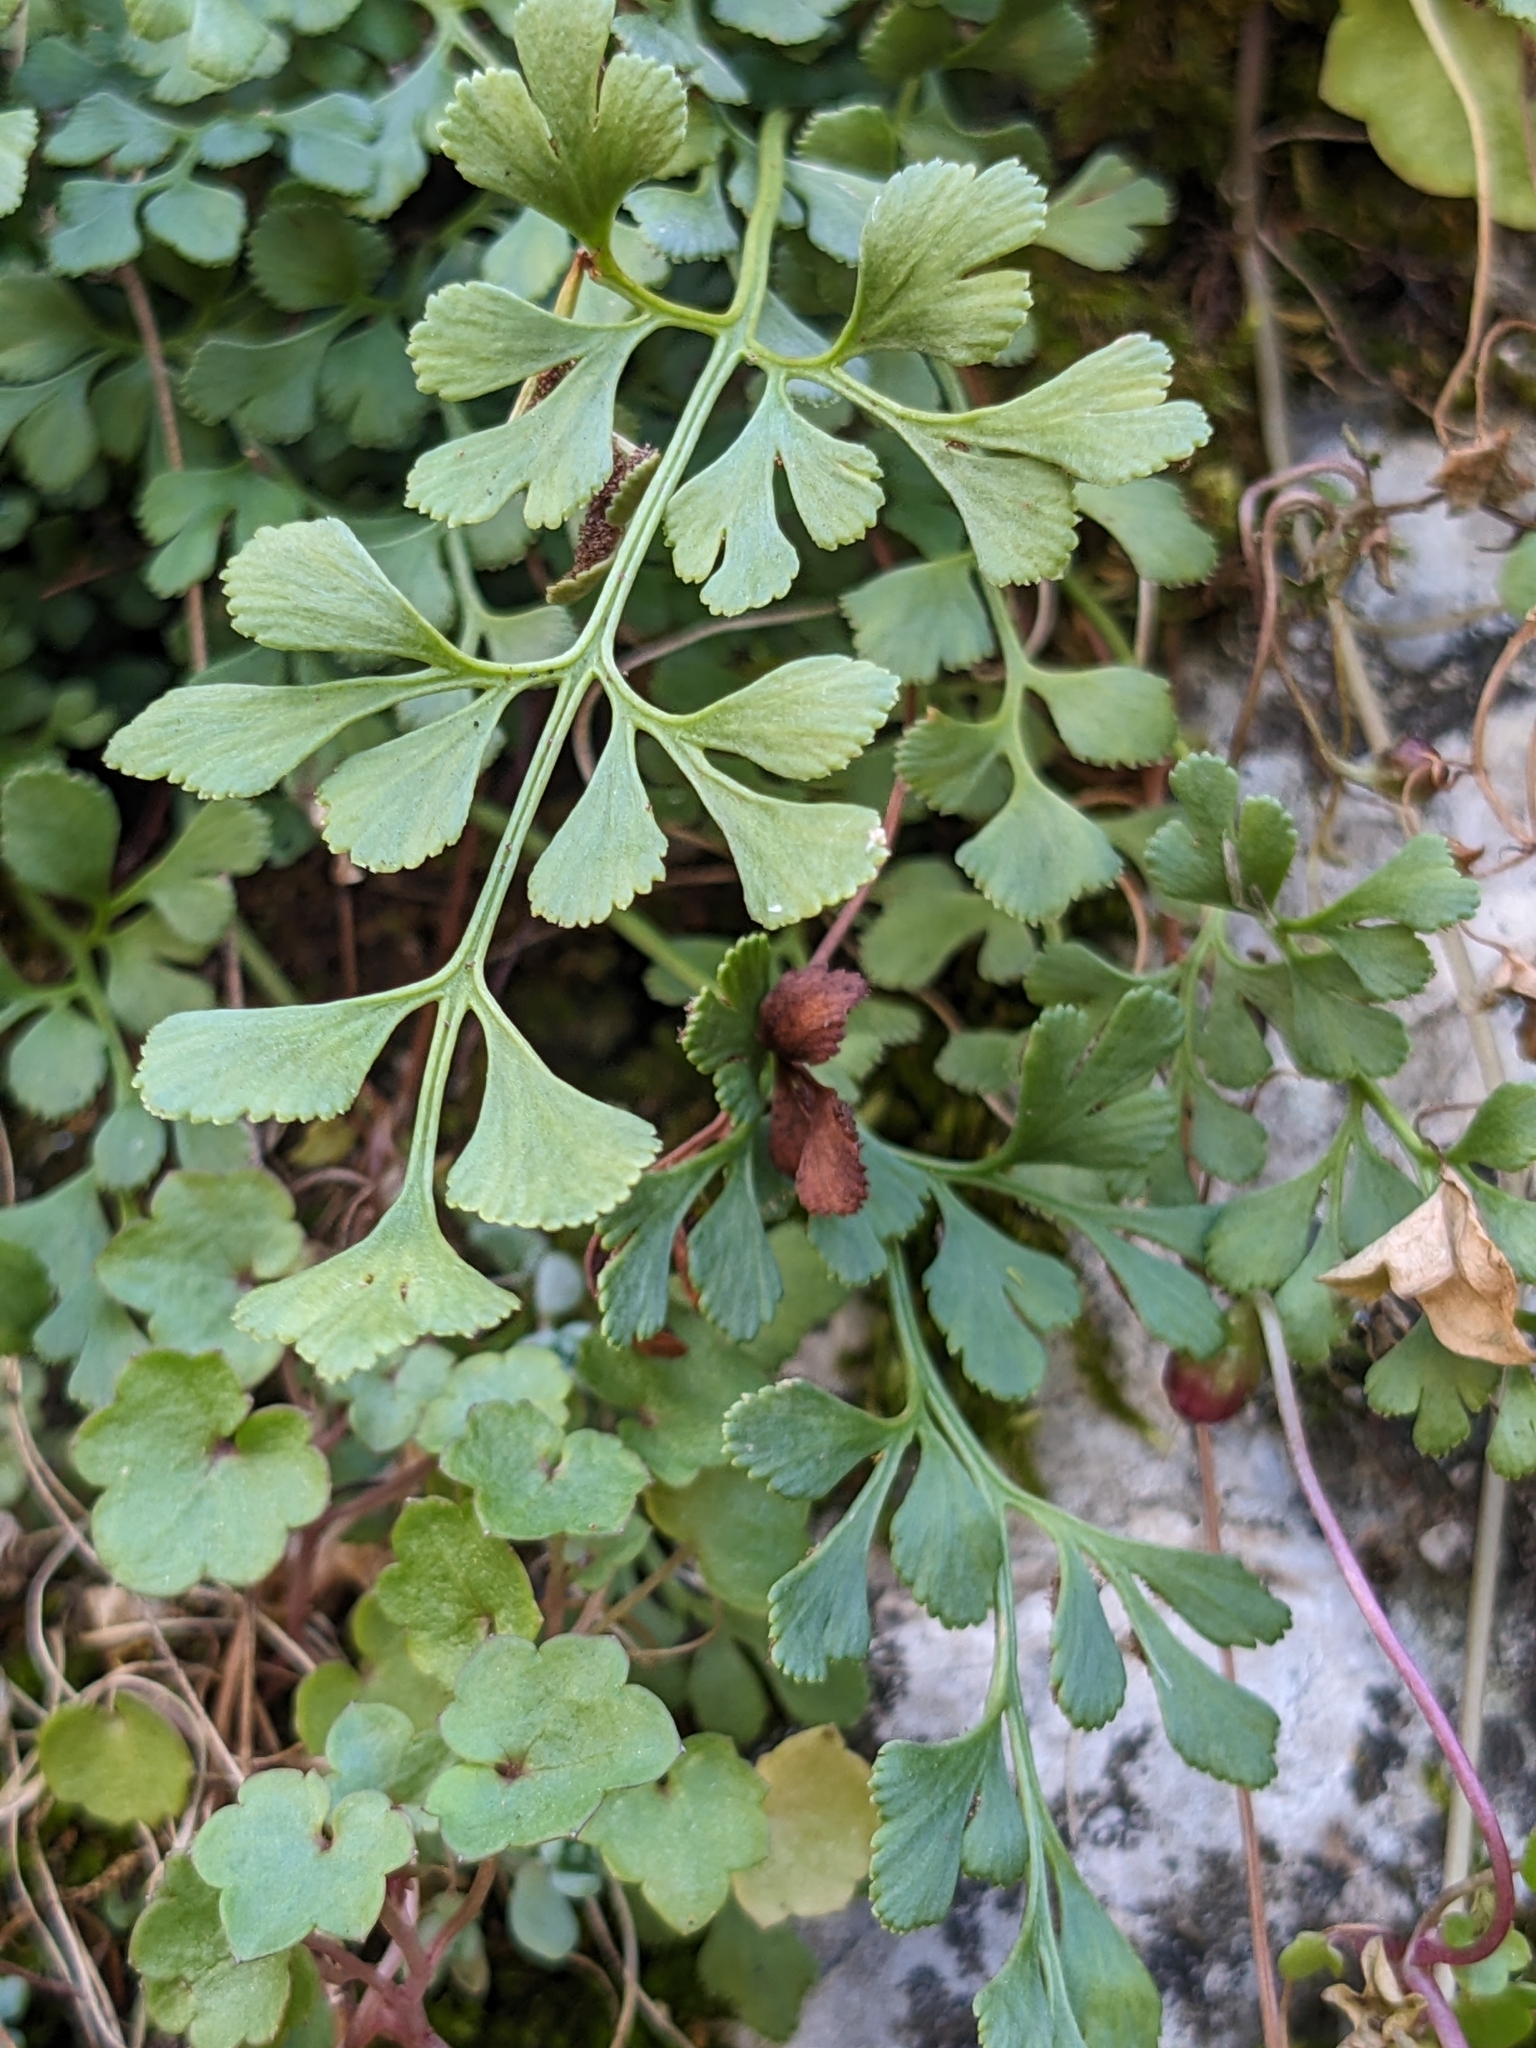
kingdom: Plantae
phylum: Tracheophyta
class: Polypodiopsida
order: Polypodiales
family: Aspleniaceae
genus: Asplenium
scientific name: Asplenium ruta-muraria
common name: Wall-rue
